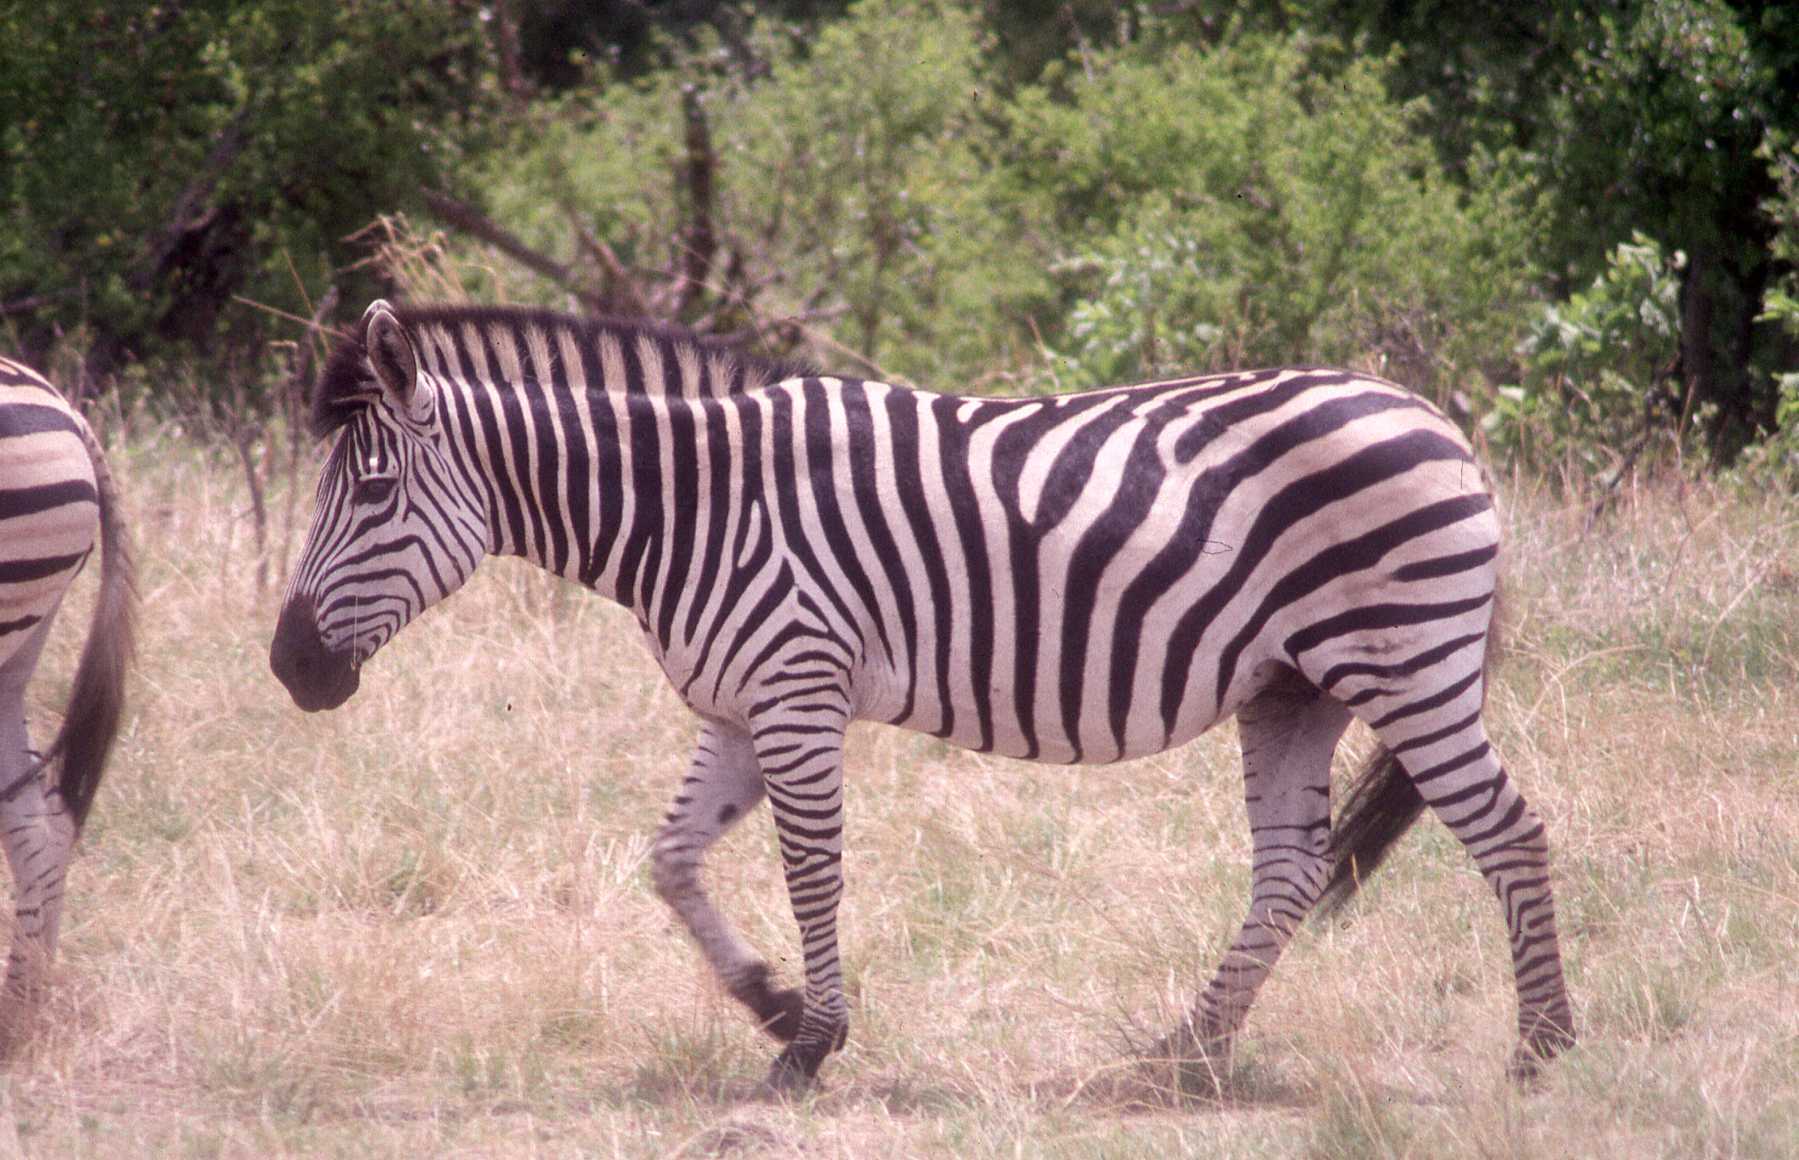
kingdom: Animalia
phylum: Chordata
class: Mammalia
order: Perissodactyla
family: Equidae
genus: Equus
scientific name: Equus quagga
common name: Plains zebra
